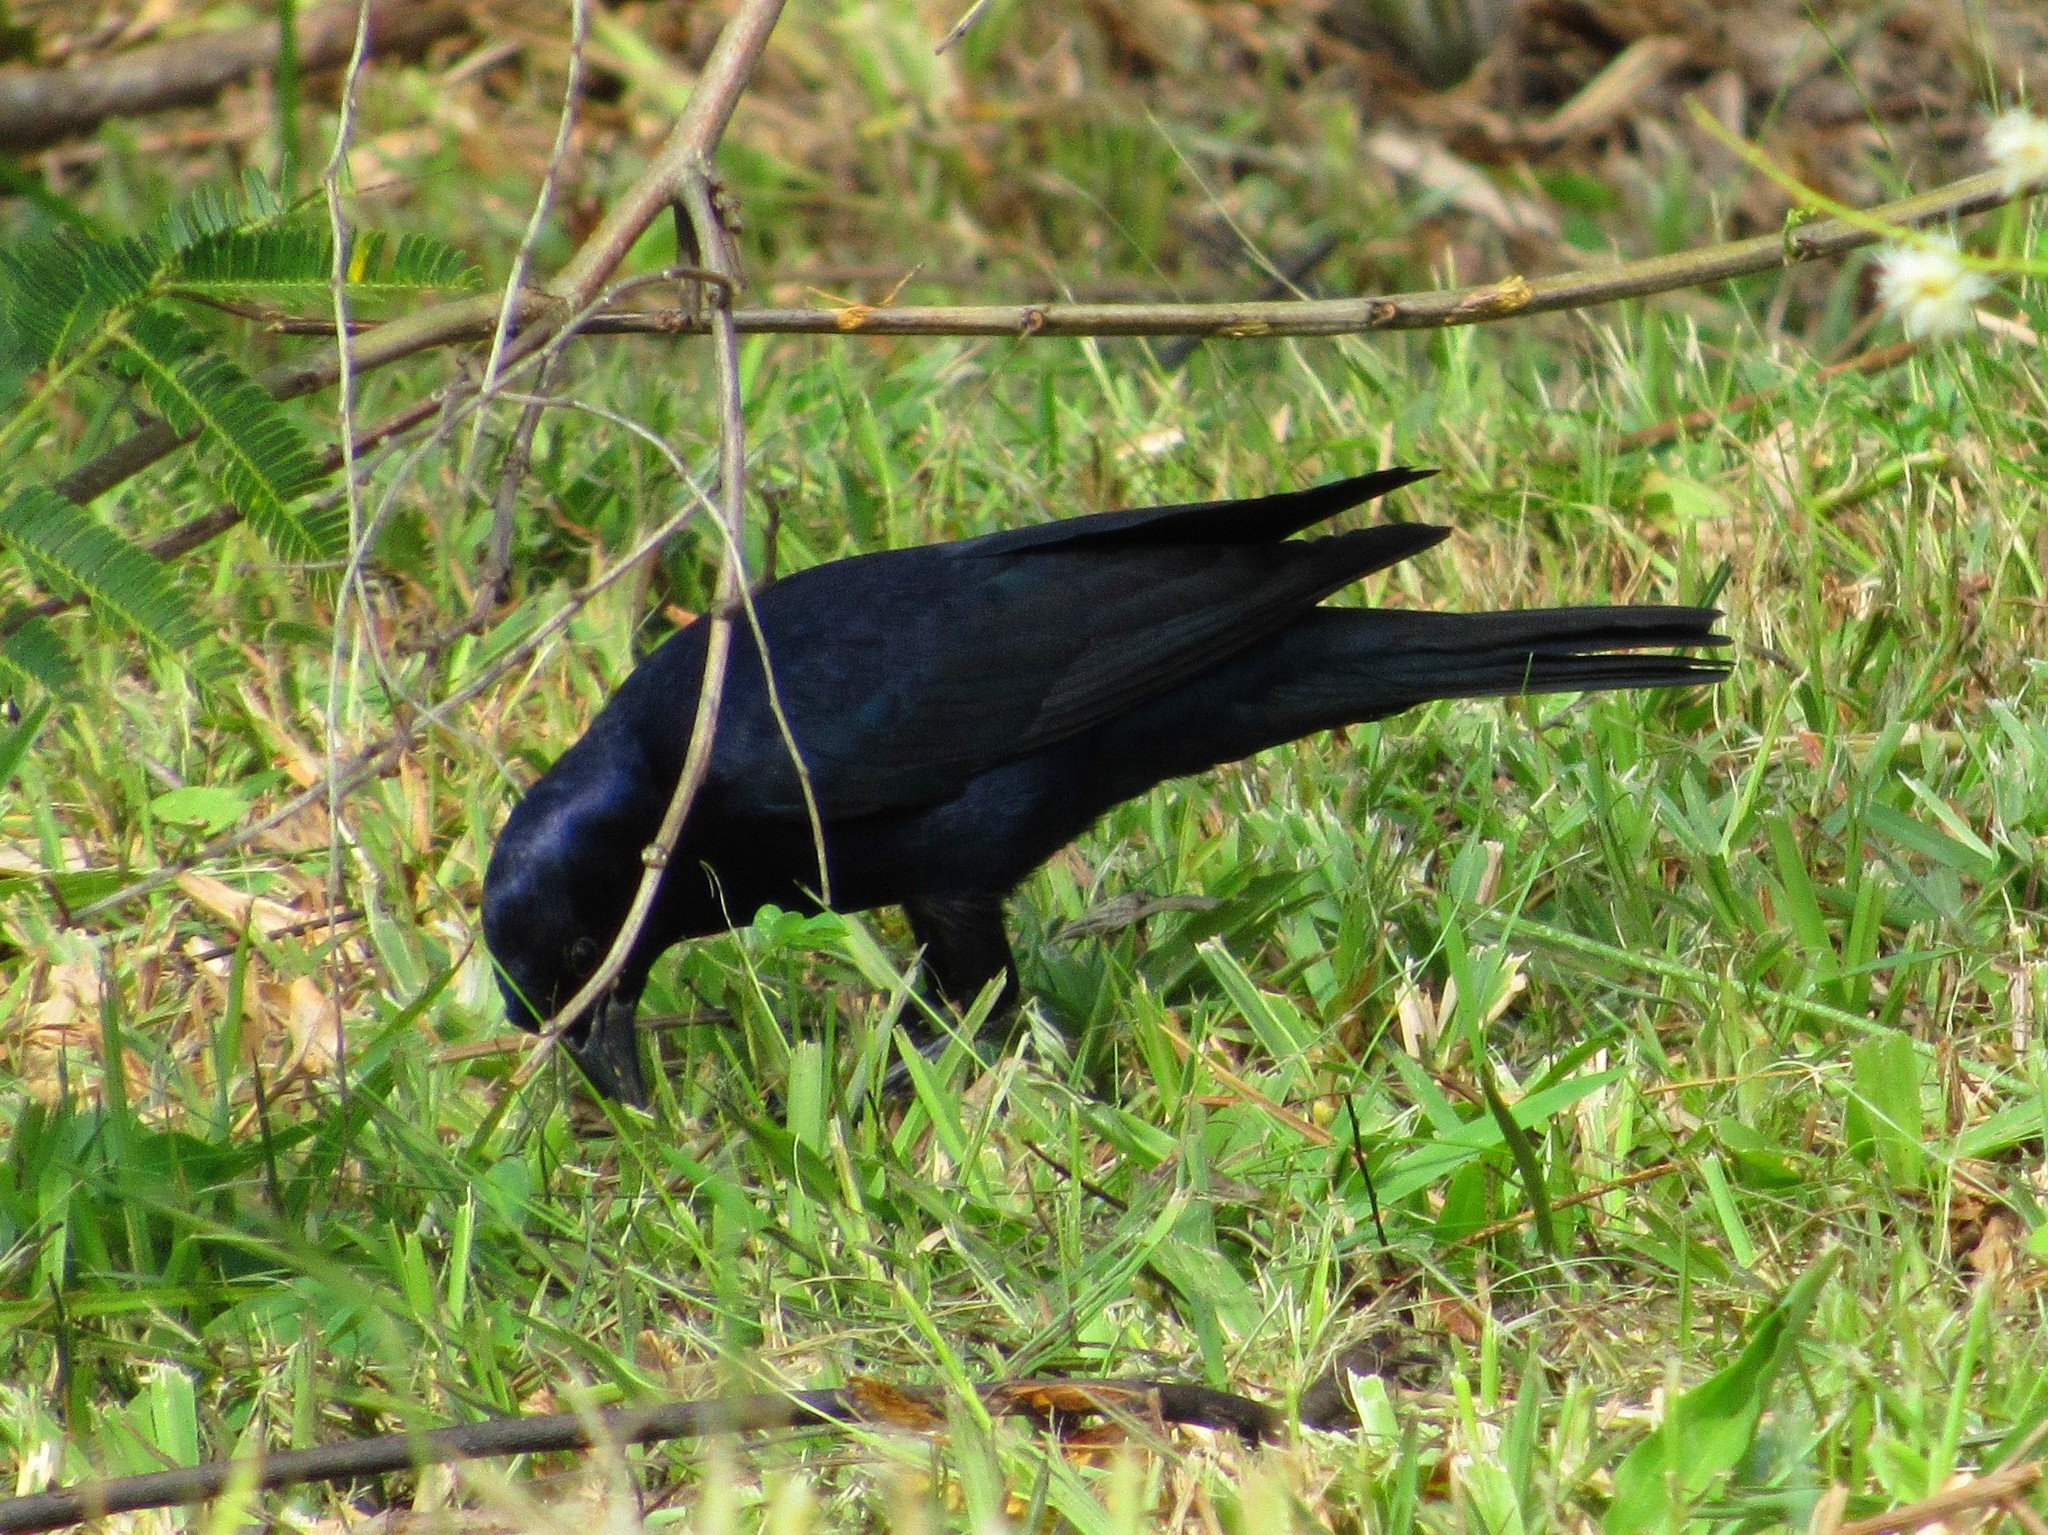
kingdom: Animalia
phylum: Chordata
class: Aves
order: Passeriformes
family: Icteridae
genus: Molothrus
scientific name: Molothrus bonariensis
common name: Shiny cowbird
